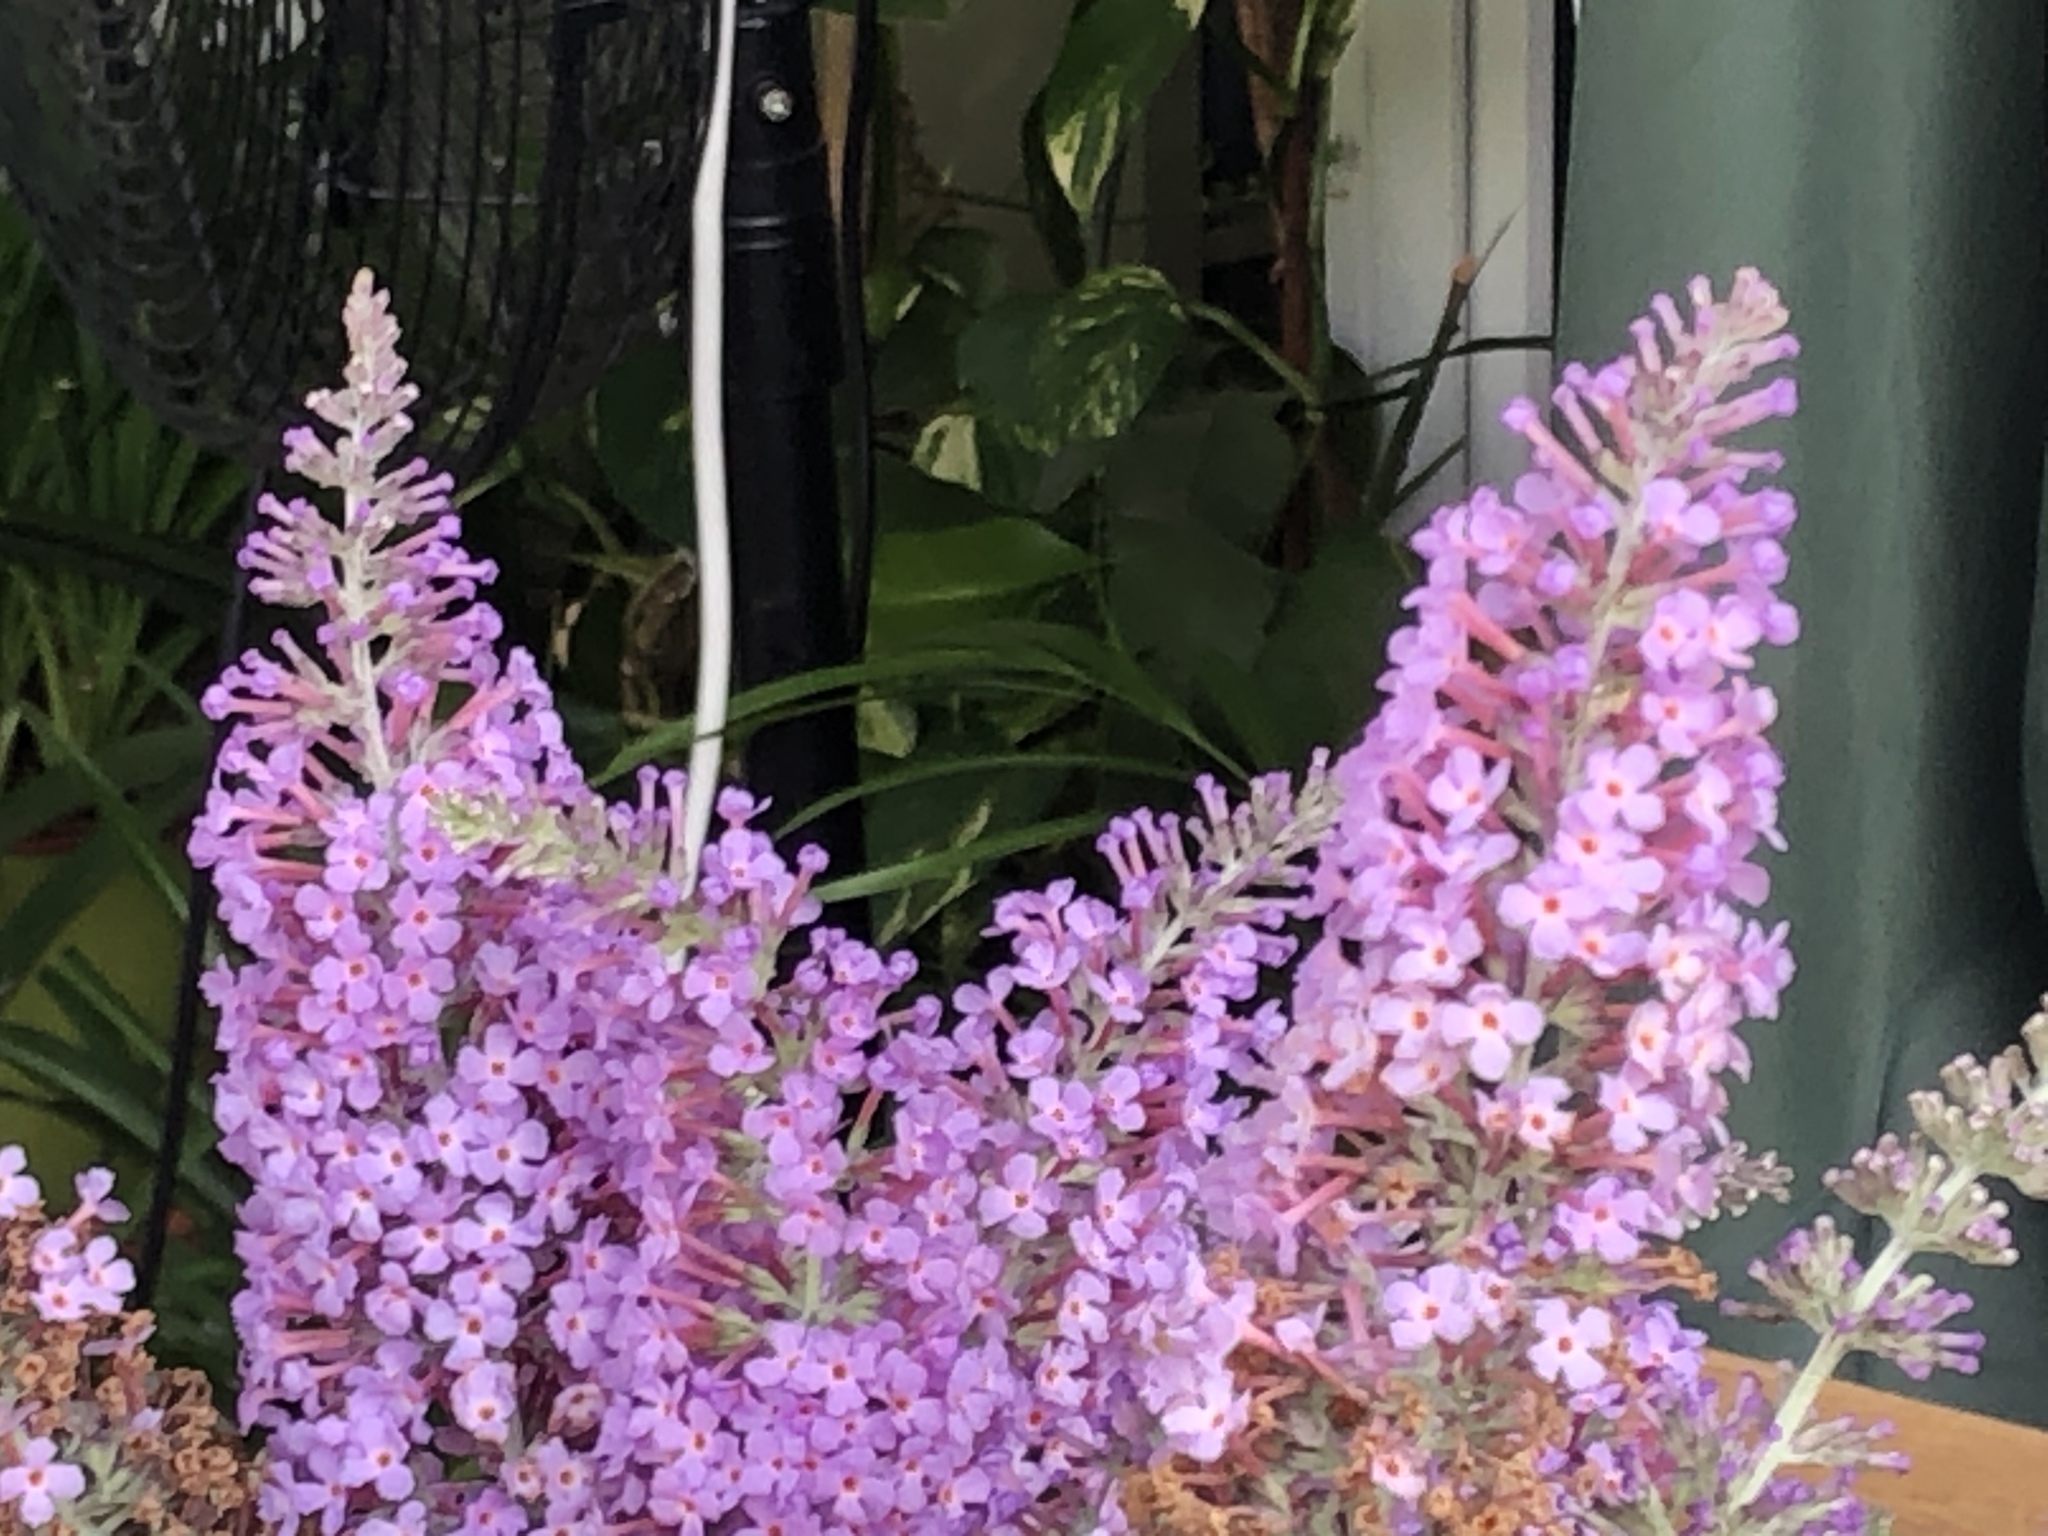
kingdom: Plantae
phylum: Tracheophyta
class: Magnoliopsida
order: Lamiales
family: Scrophulariaceae
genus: Buddleja
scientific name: Buddleja davidii
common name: Butterfly-bush
